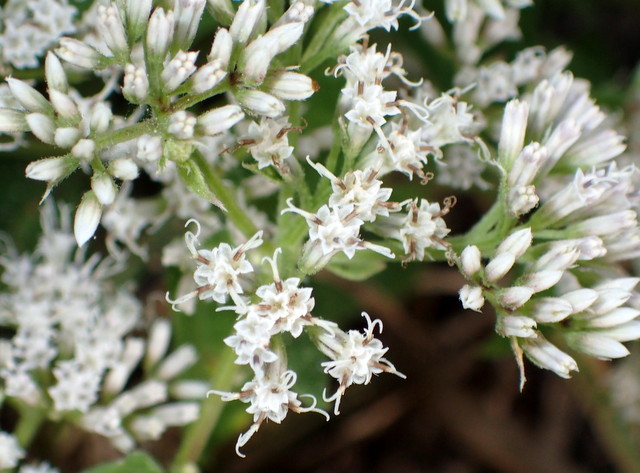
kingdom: Plantae
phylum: Tracheophyta
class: Magnoliopsida
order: Asterales
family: Asteraceae
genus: Mikania
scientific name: Mikania scandens
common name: Climbing hempvine
